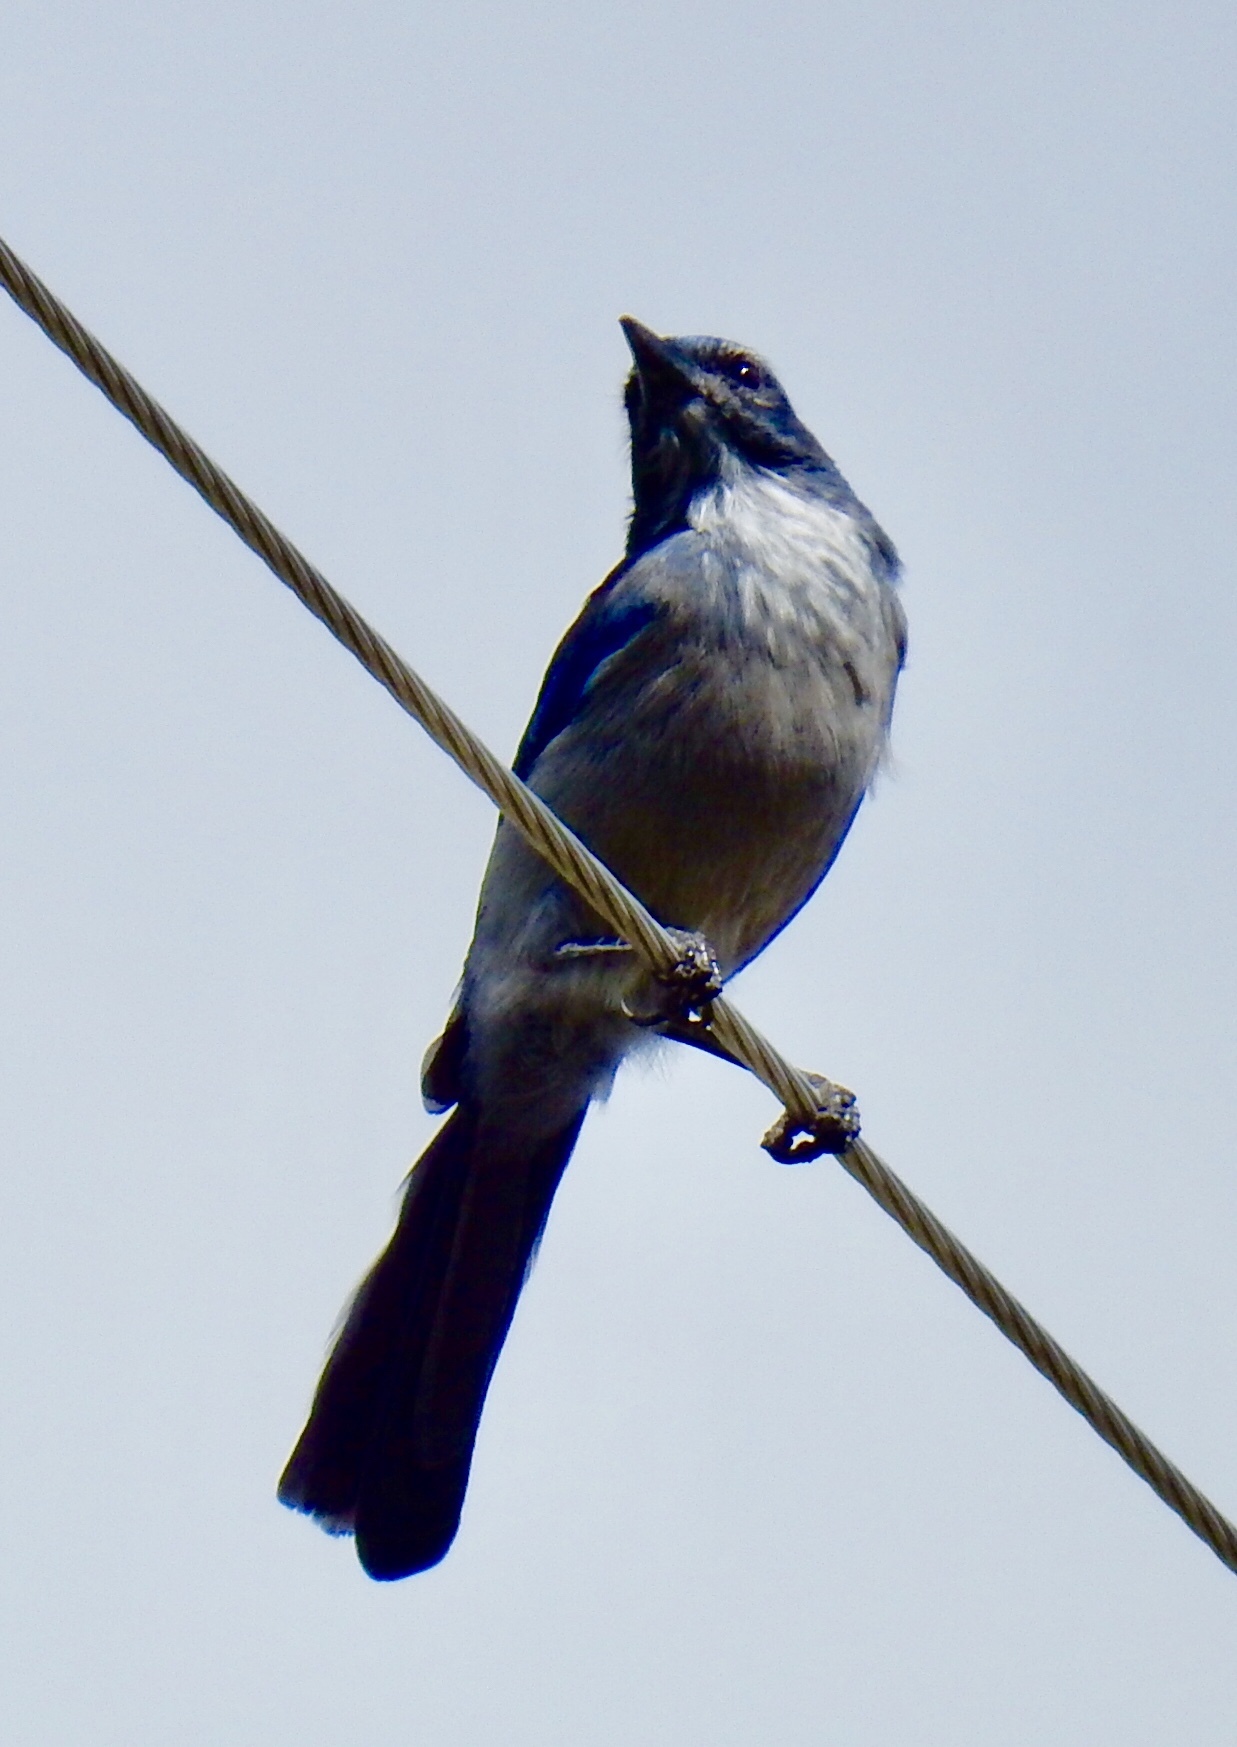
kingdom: Animalia
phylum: Chordata
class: Aves
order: Passeriformes
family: Corvidae
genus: Aphelocoma
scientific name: Aphelocoma woodhouseii
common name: Woodhouse's scrub-jay
